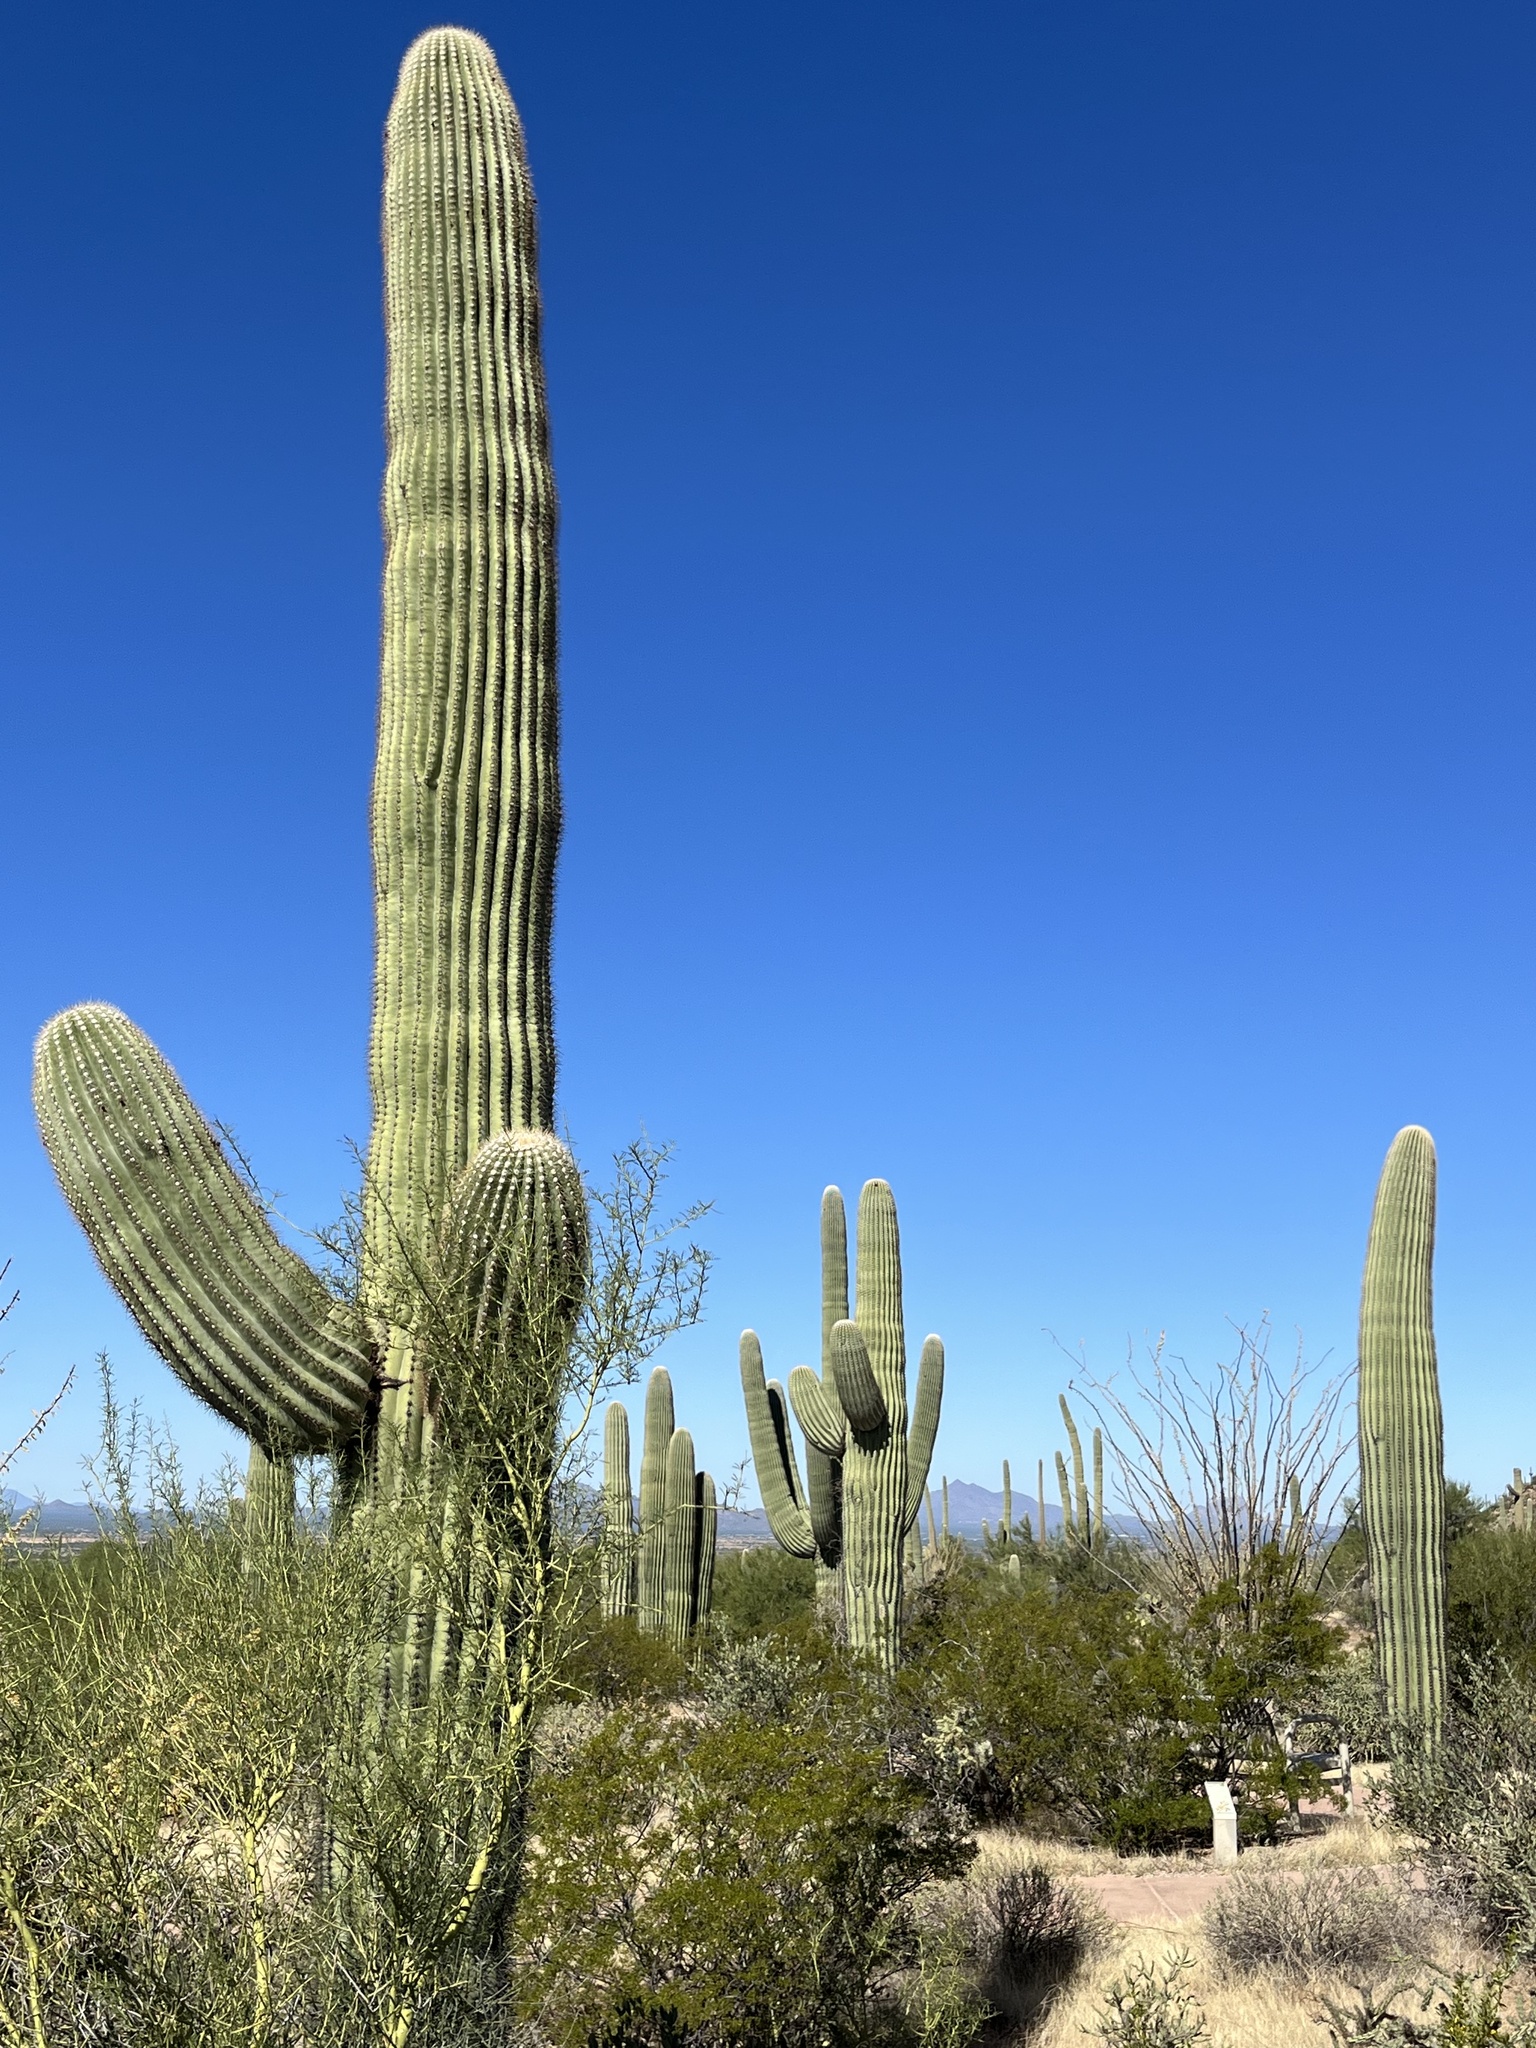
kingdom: Plantae
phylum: Tracheophyta
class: Magnoliopsida
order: Caryophyllales
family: Cactaceae
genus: Carnegiea
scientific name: Carnegiea gigantea
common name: Saguaro
